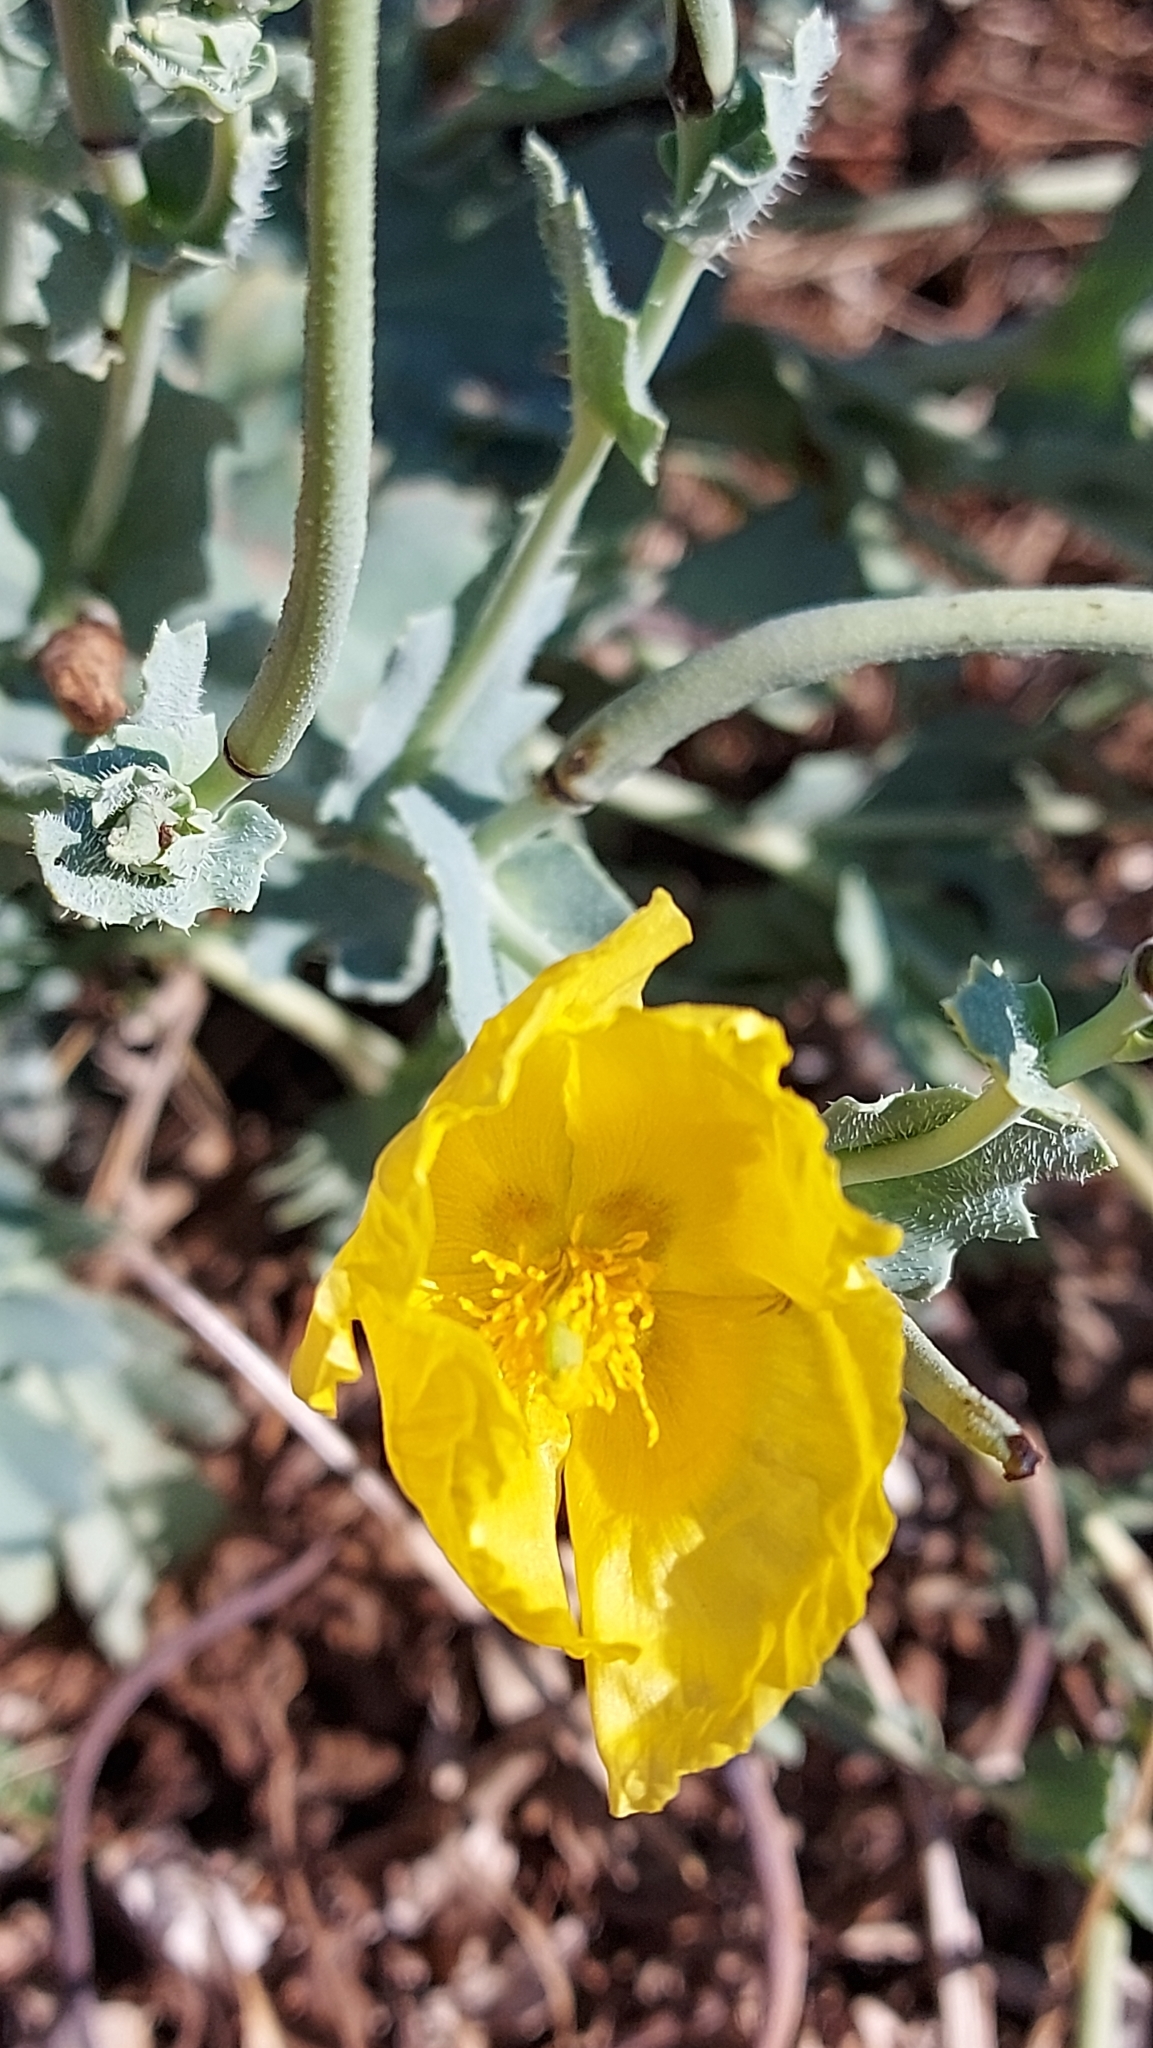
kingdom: Plantae
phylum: Tracheophyta
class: Magnoliopsida
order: Ranunculales
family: Papaveraceae
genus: Glaucium
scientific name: Glaucium flavum
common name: Yellow horned-poppy
